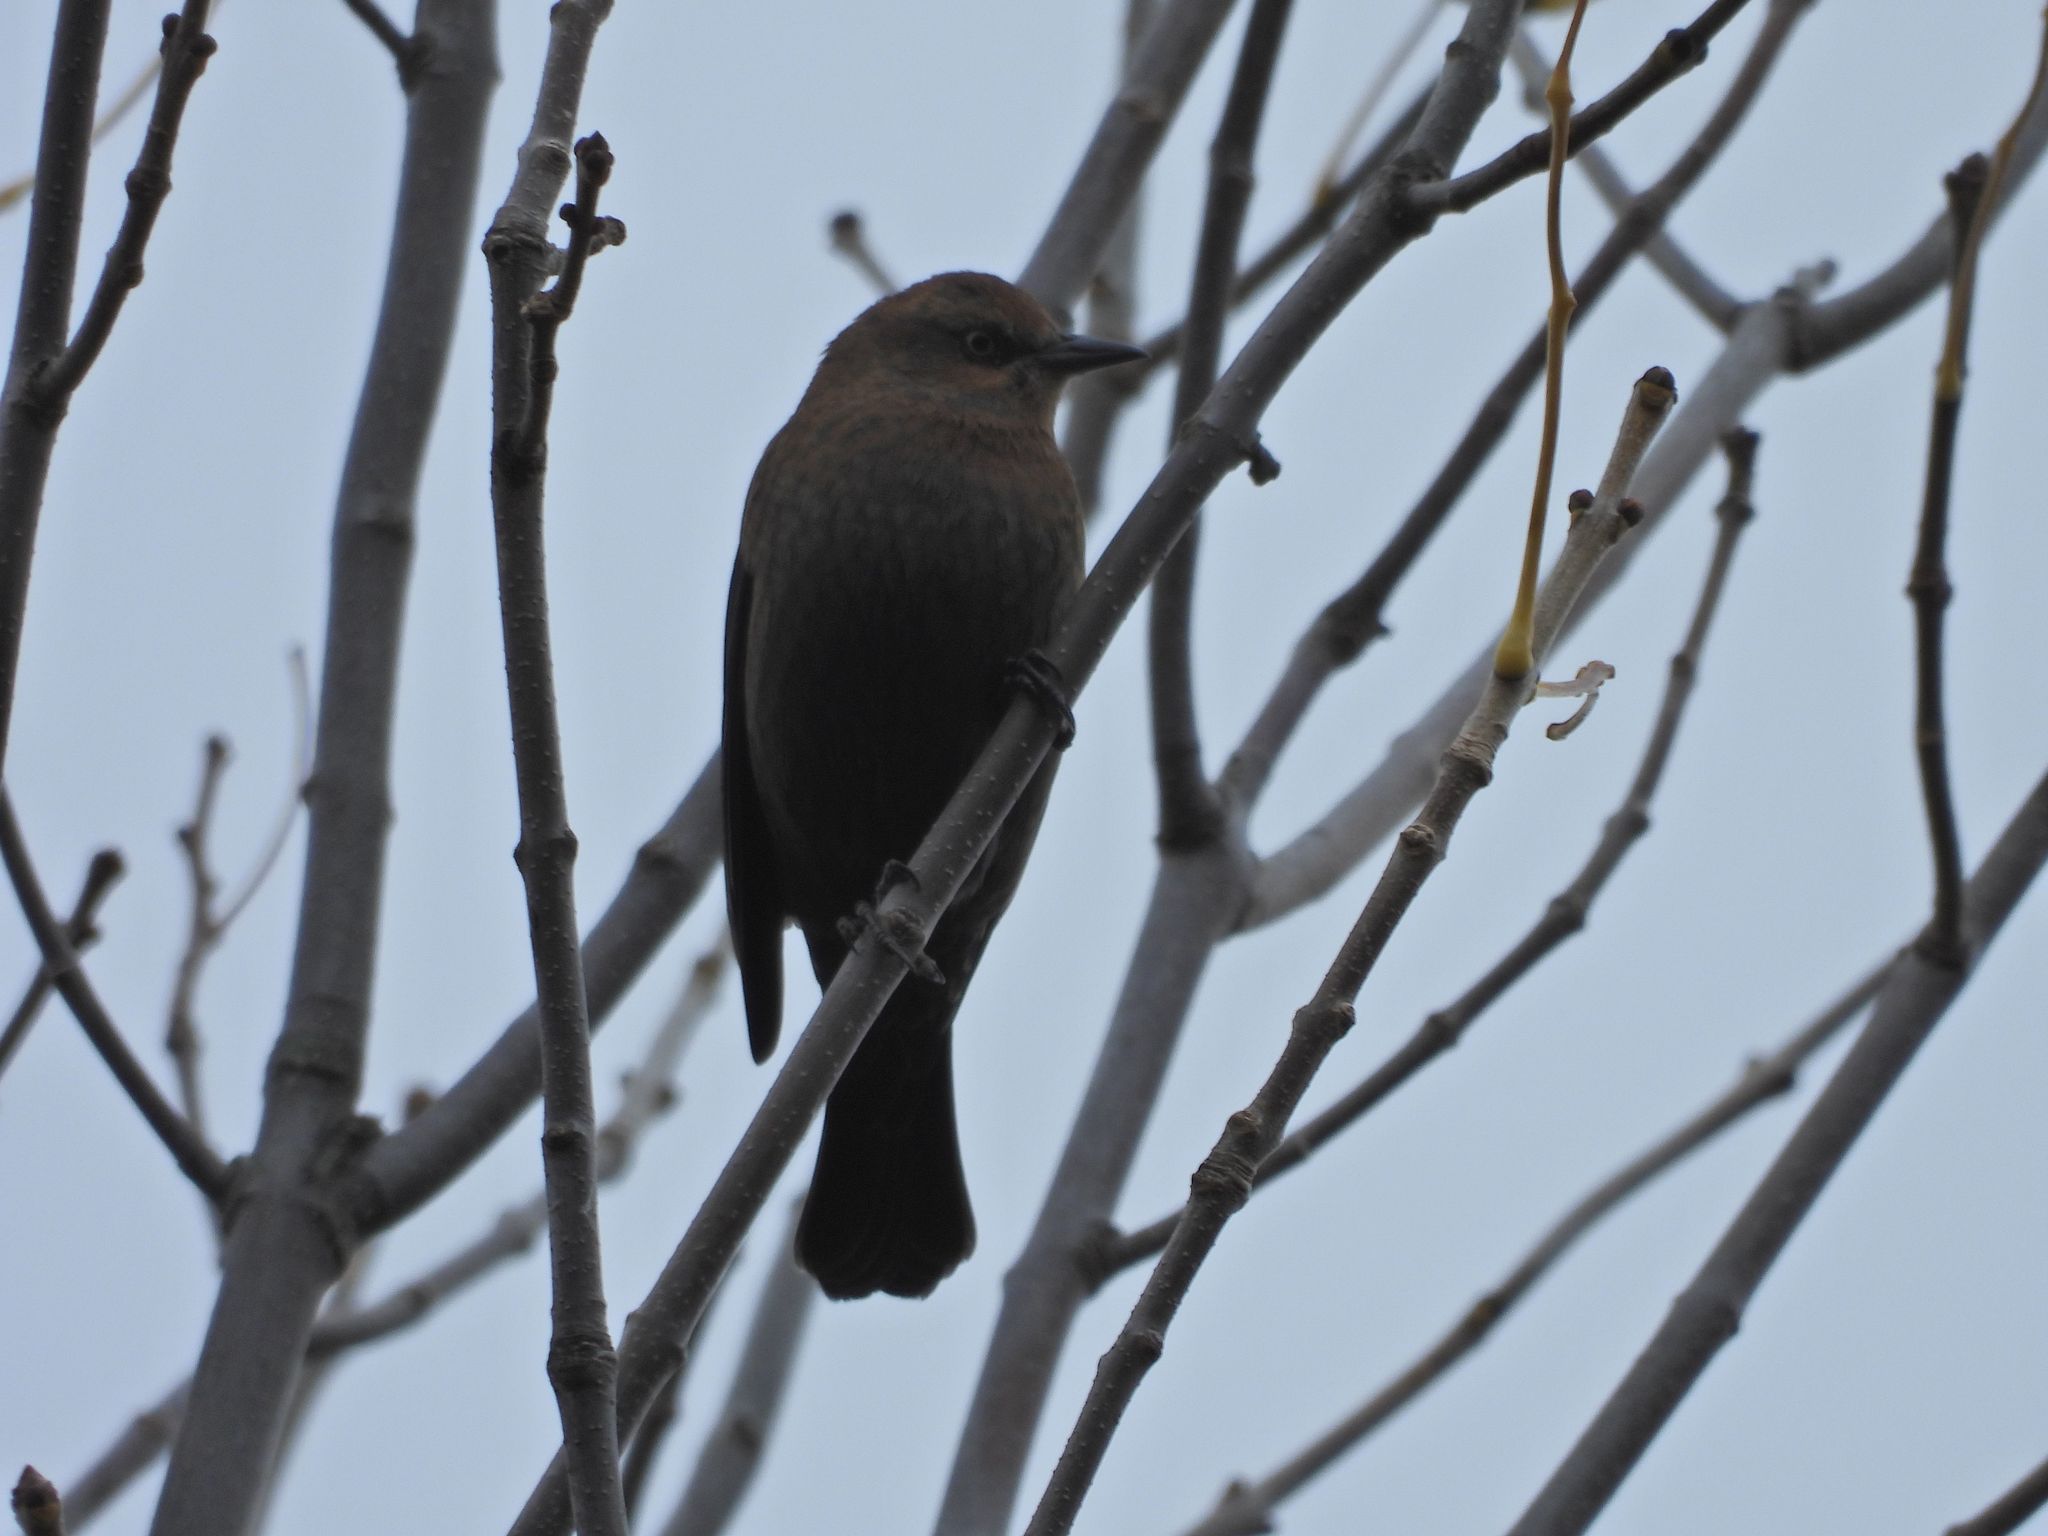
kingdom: Animalia
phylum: Chordata
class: Aves
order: Passeriformes
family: Icteridae
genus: Euphagus
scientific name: Euphagus carolinus
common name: Rusty blackbird
